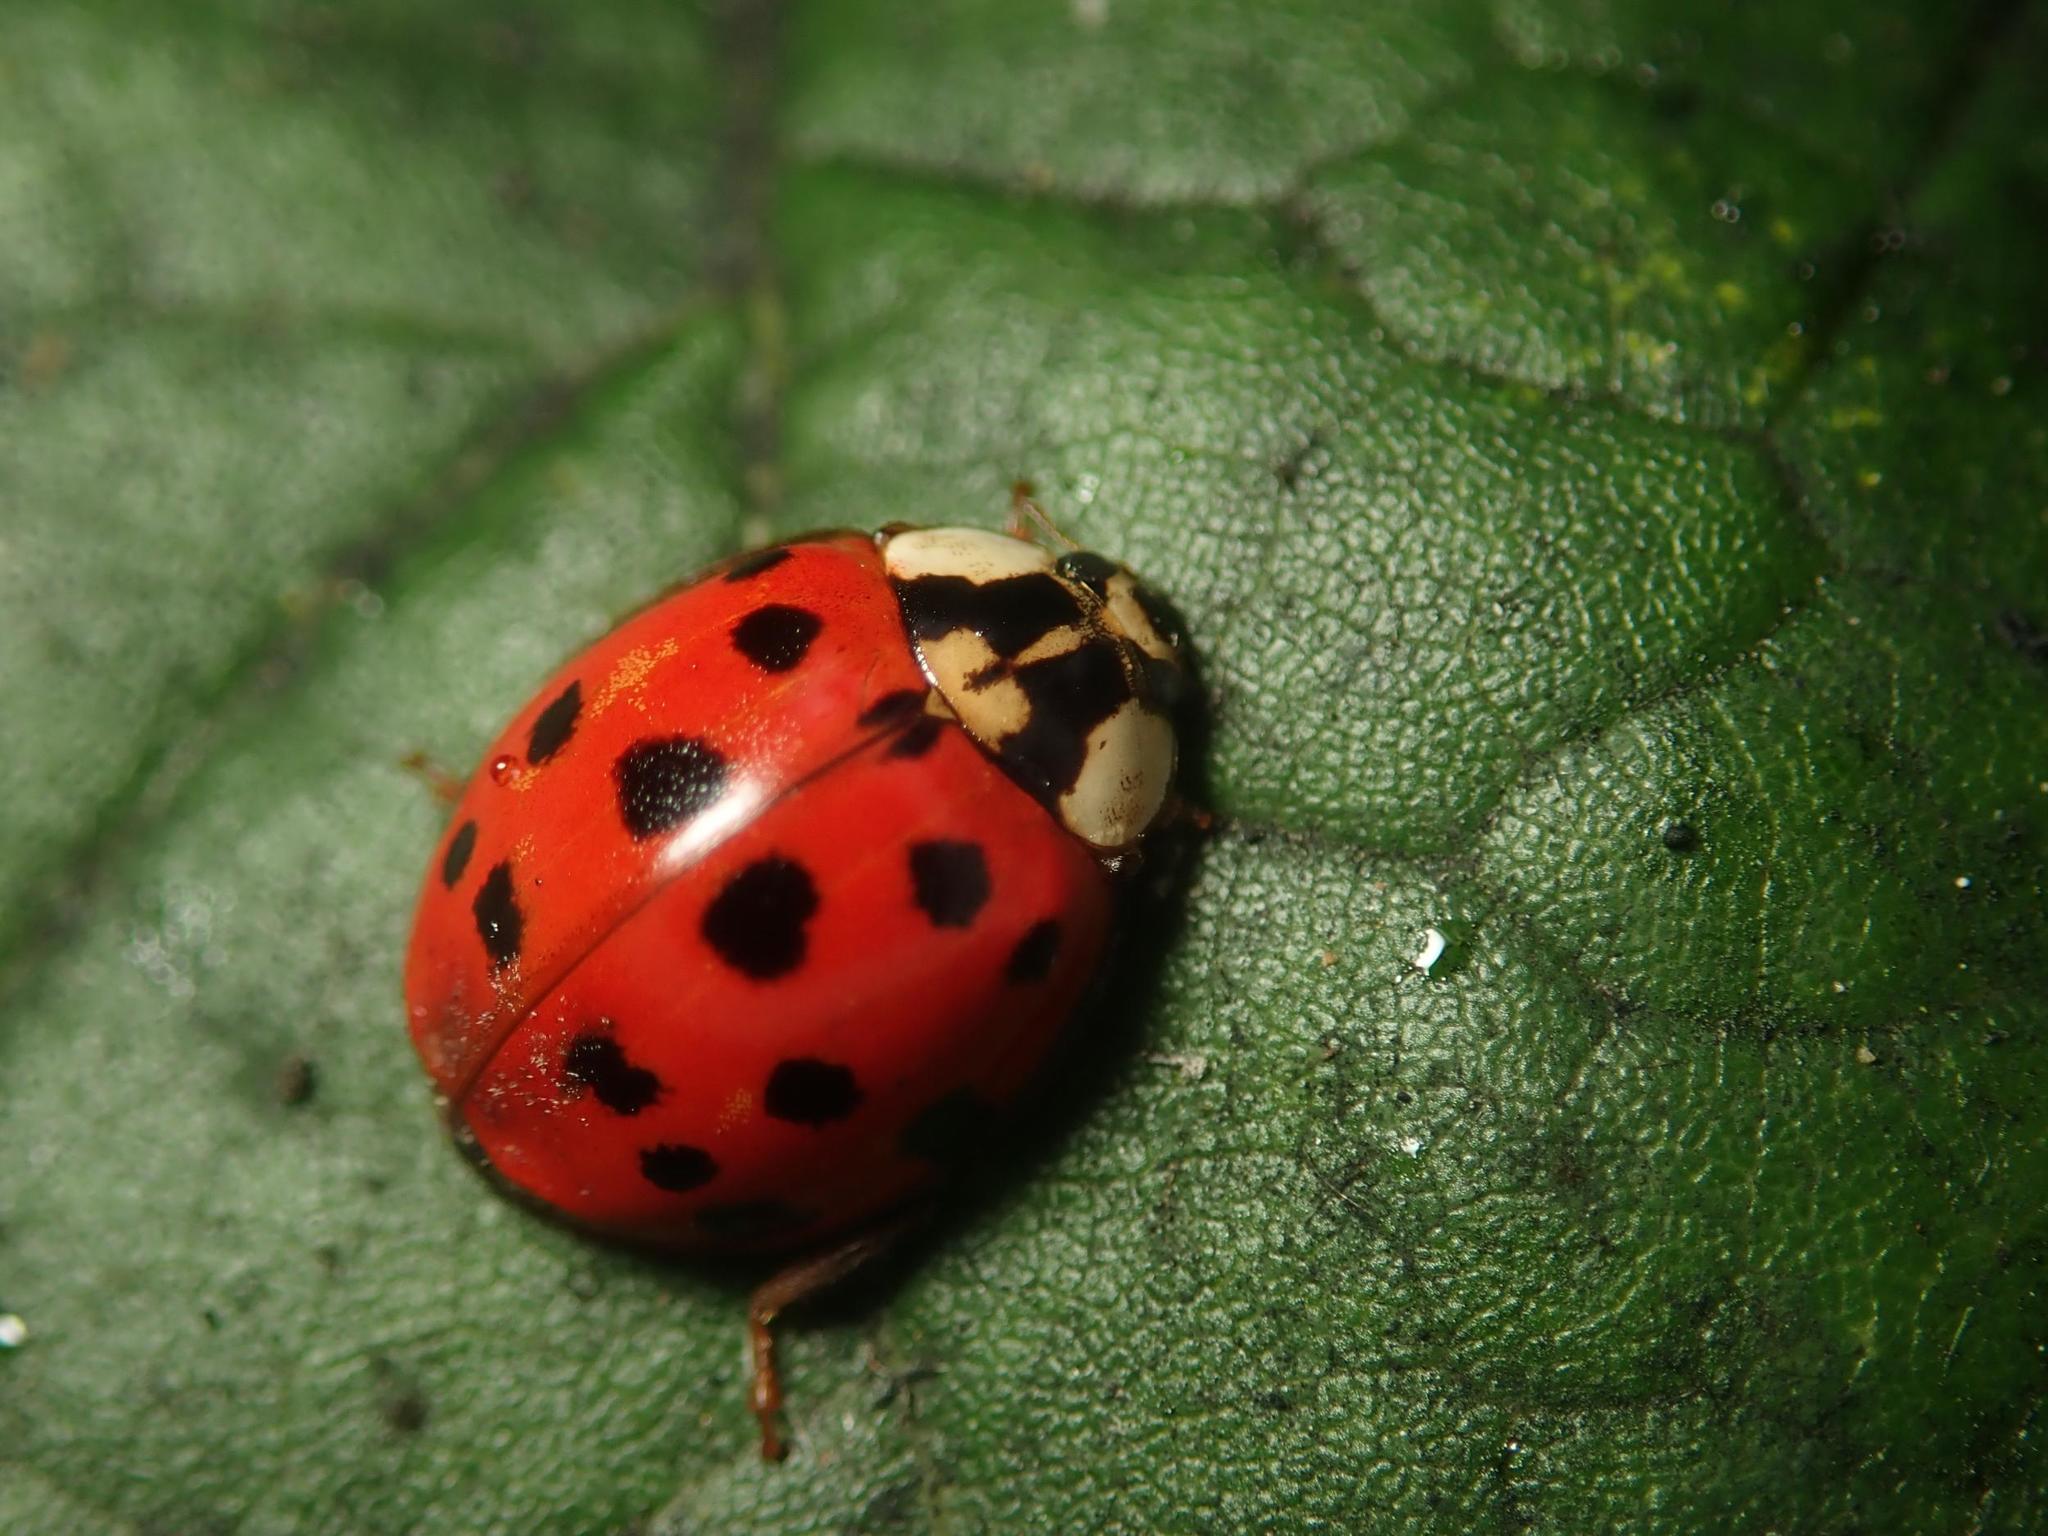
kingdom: Animalia
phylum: Arthropoda
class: Insecta
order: Coleoptera
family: Coccinellidae
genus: Harmonia
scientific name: Harmonia axyridis
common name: Harlequin ladybird
